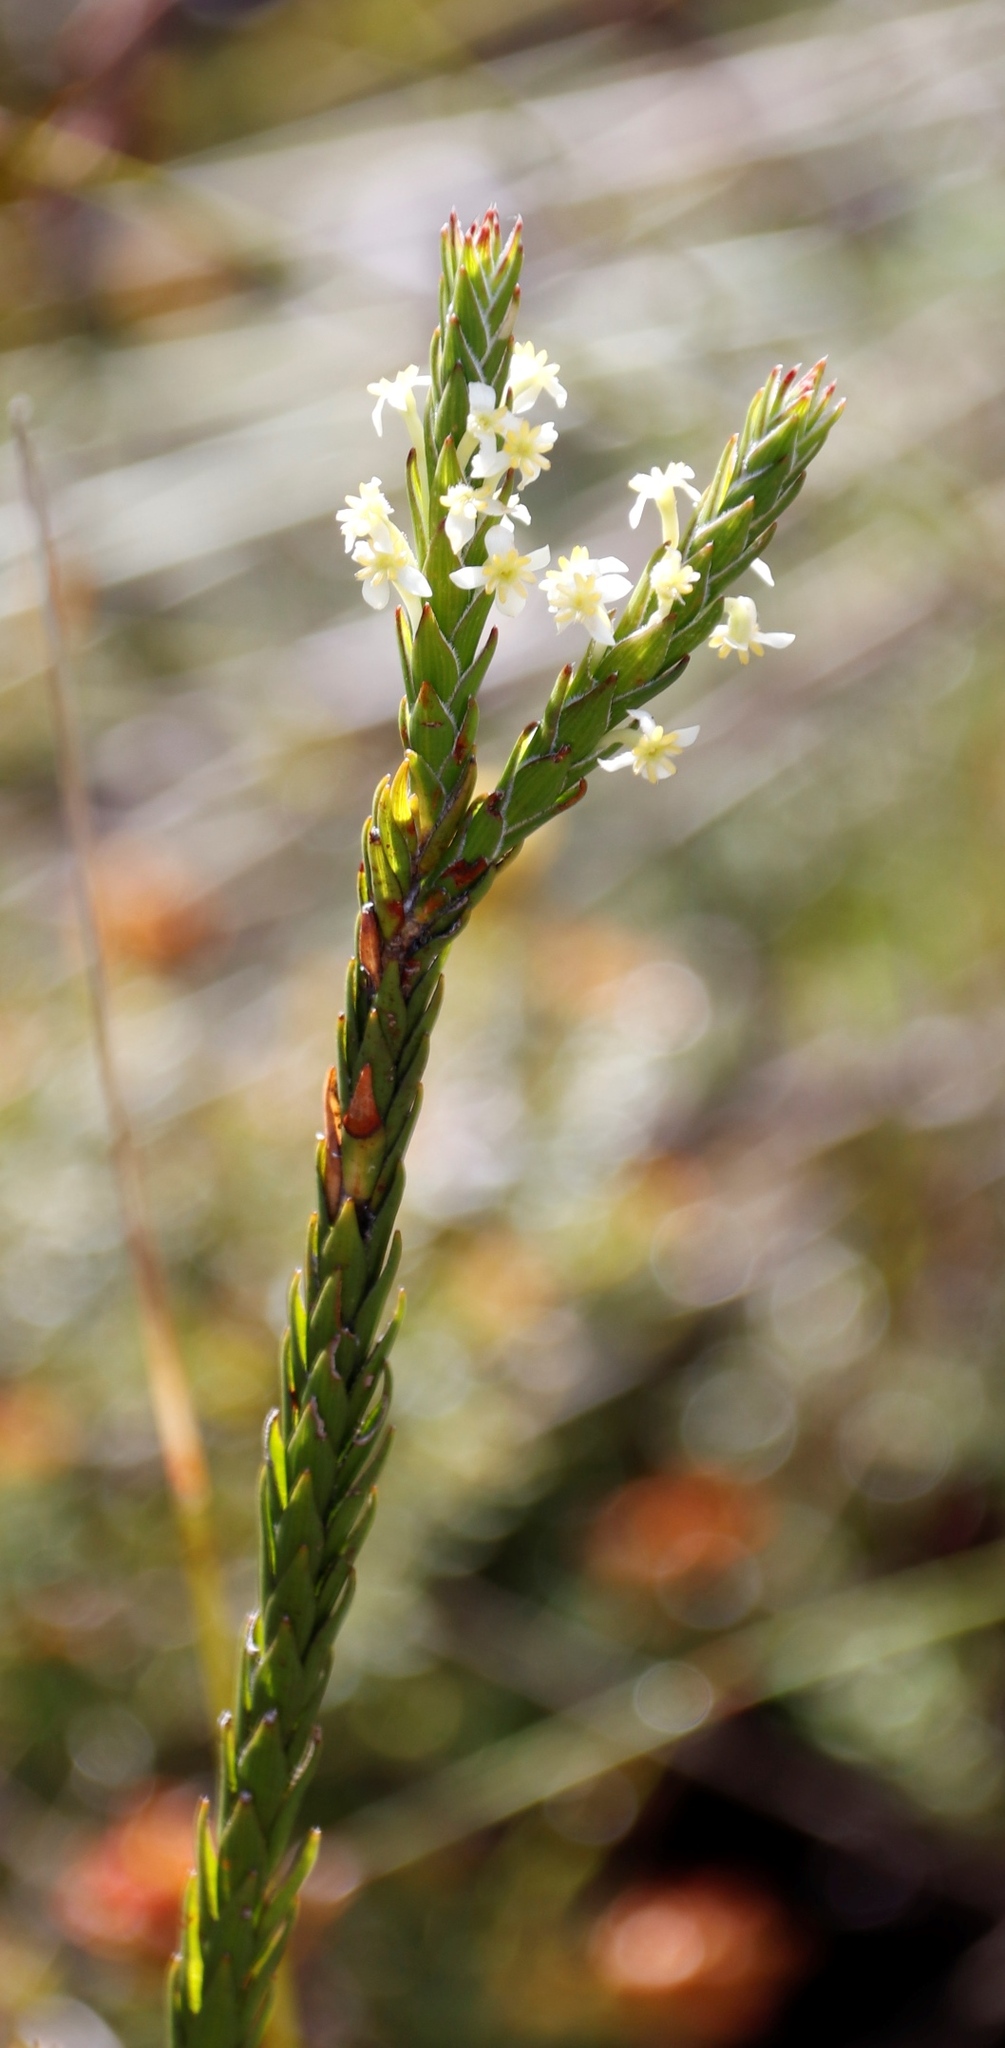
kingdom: Plantae
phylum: Tracheophyta
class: Magnoliopsida
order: Malvales
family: Thymelaeaceae
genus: Struthiola
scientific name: Struthiola ciliata
